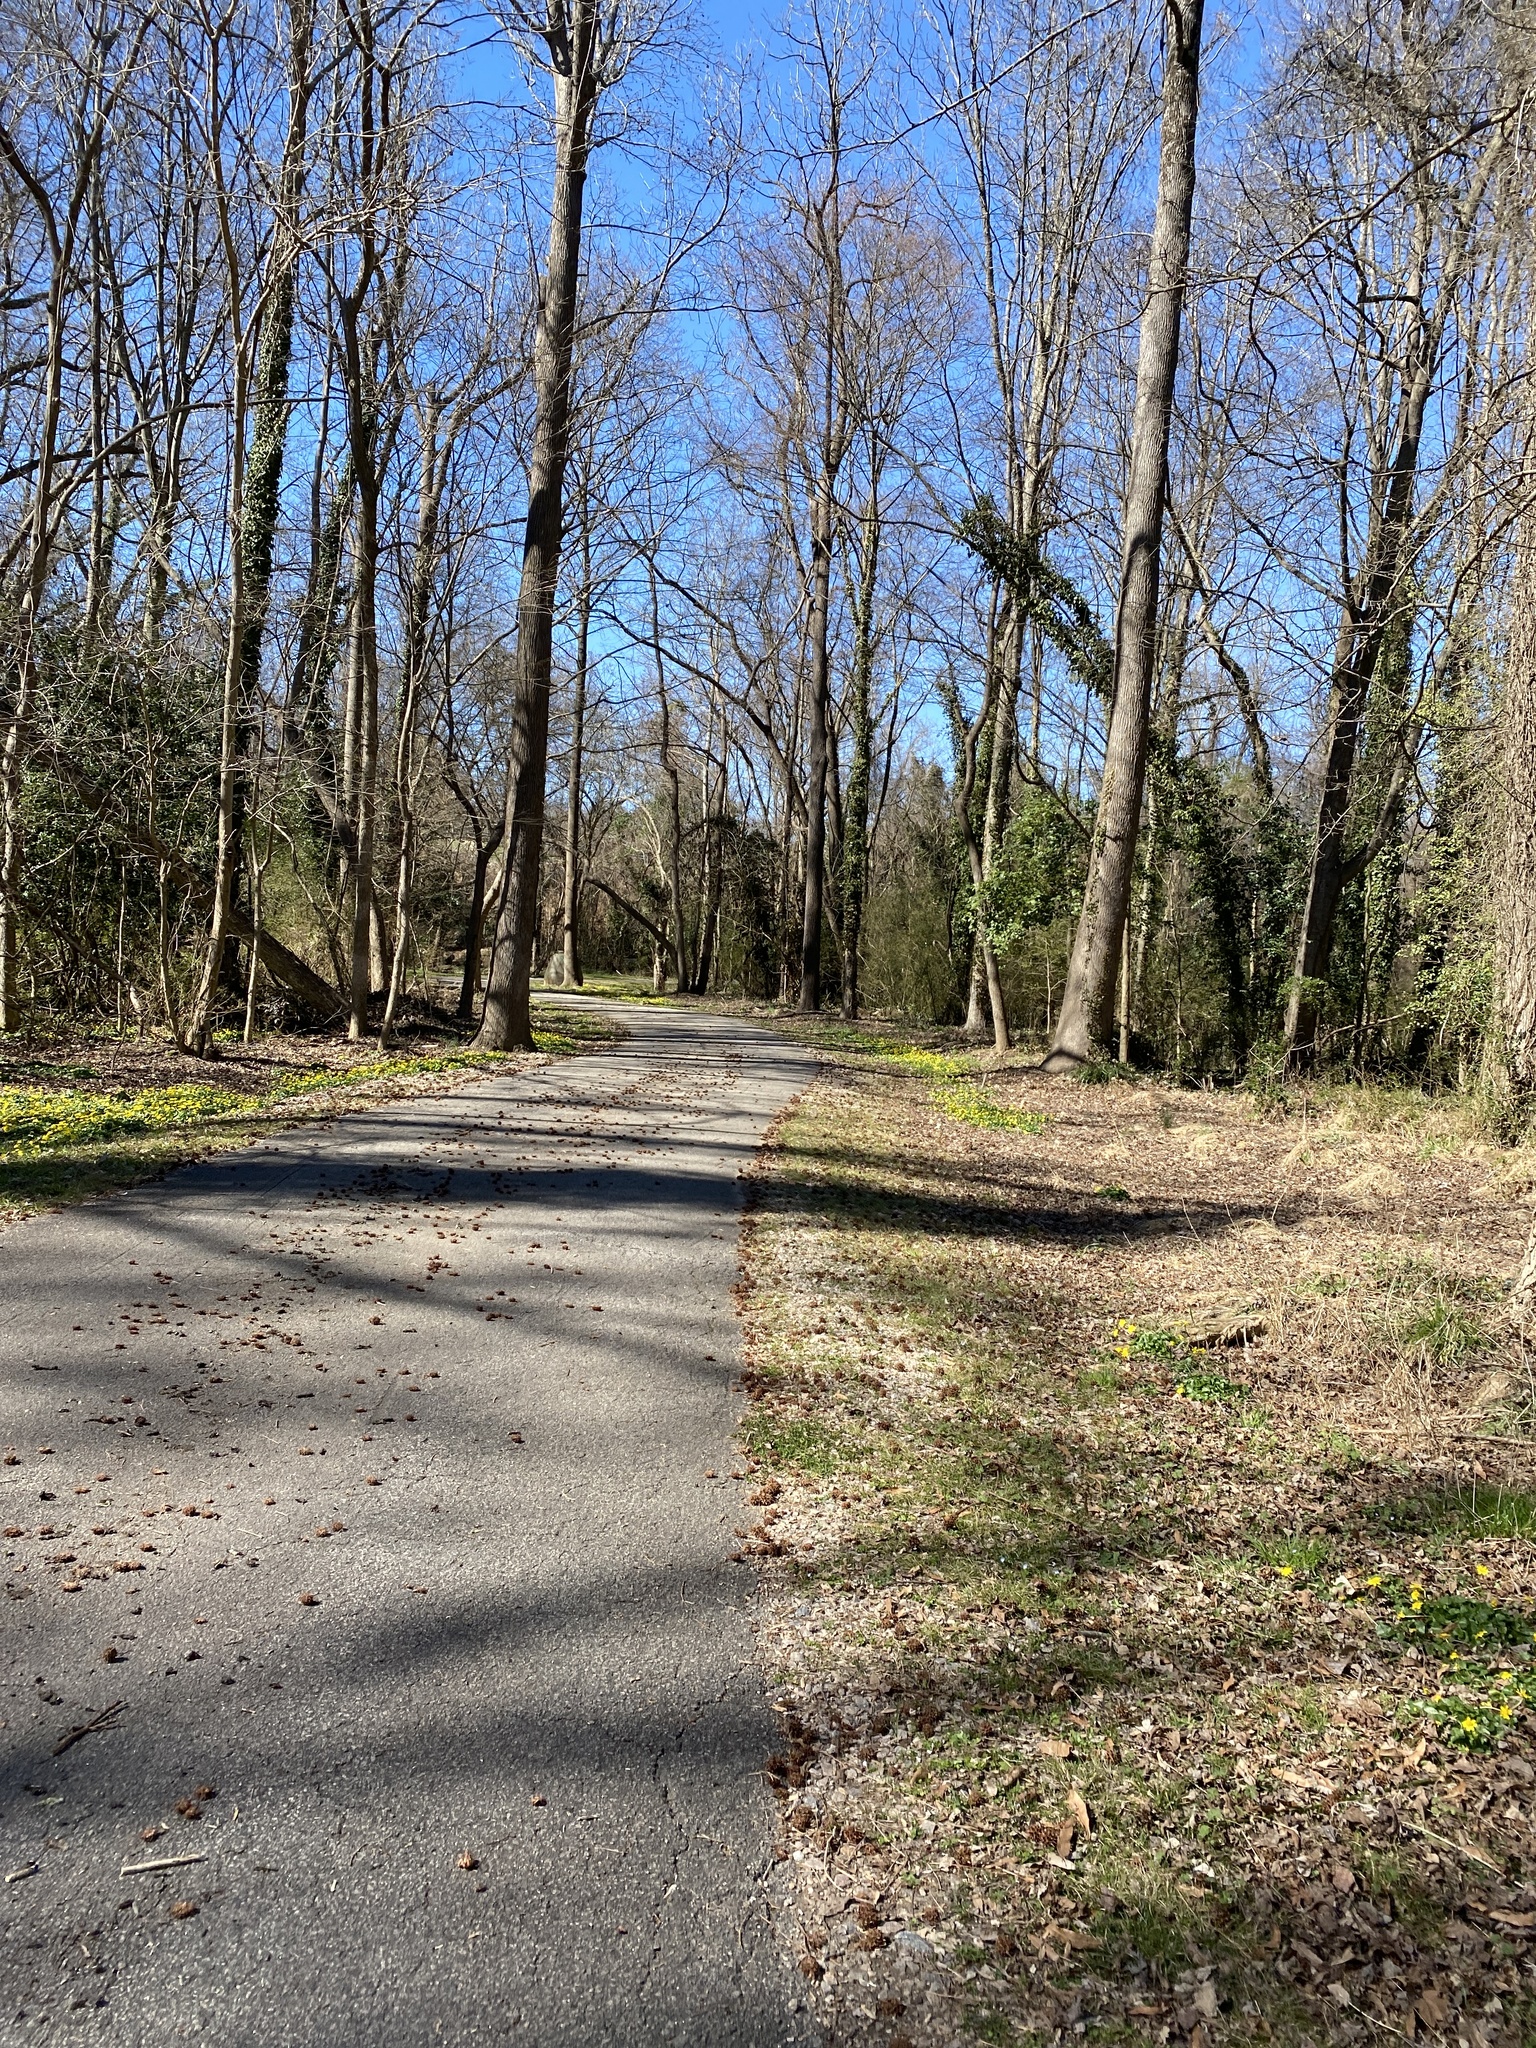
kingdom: Plantae
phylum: Tracheophyta
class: Magnoliopsida
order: Ranunculales
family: Ranunculaceae
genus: Ficaria
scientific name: Ficaria verna
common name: Lesser celandine
